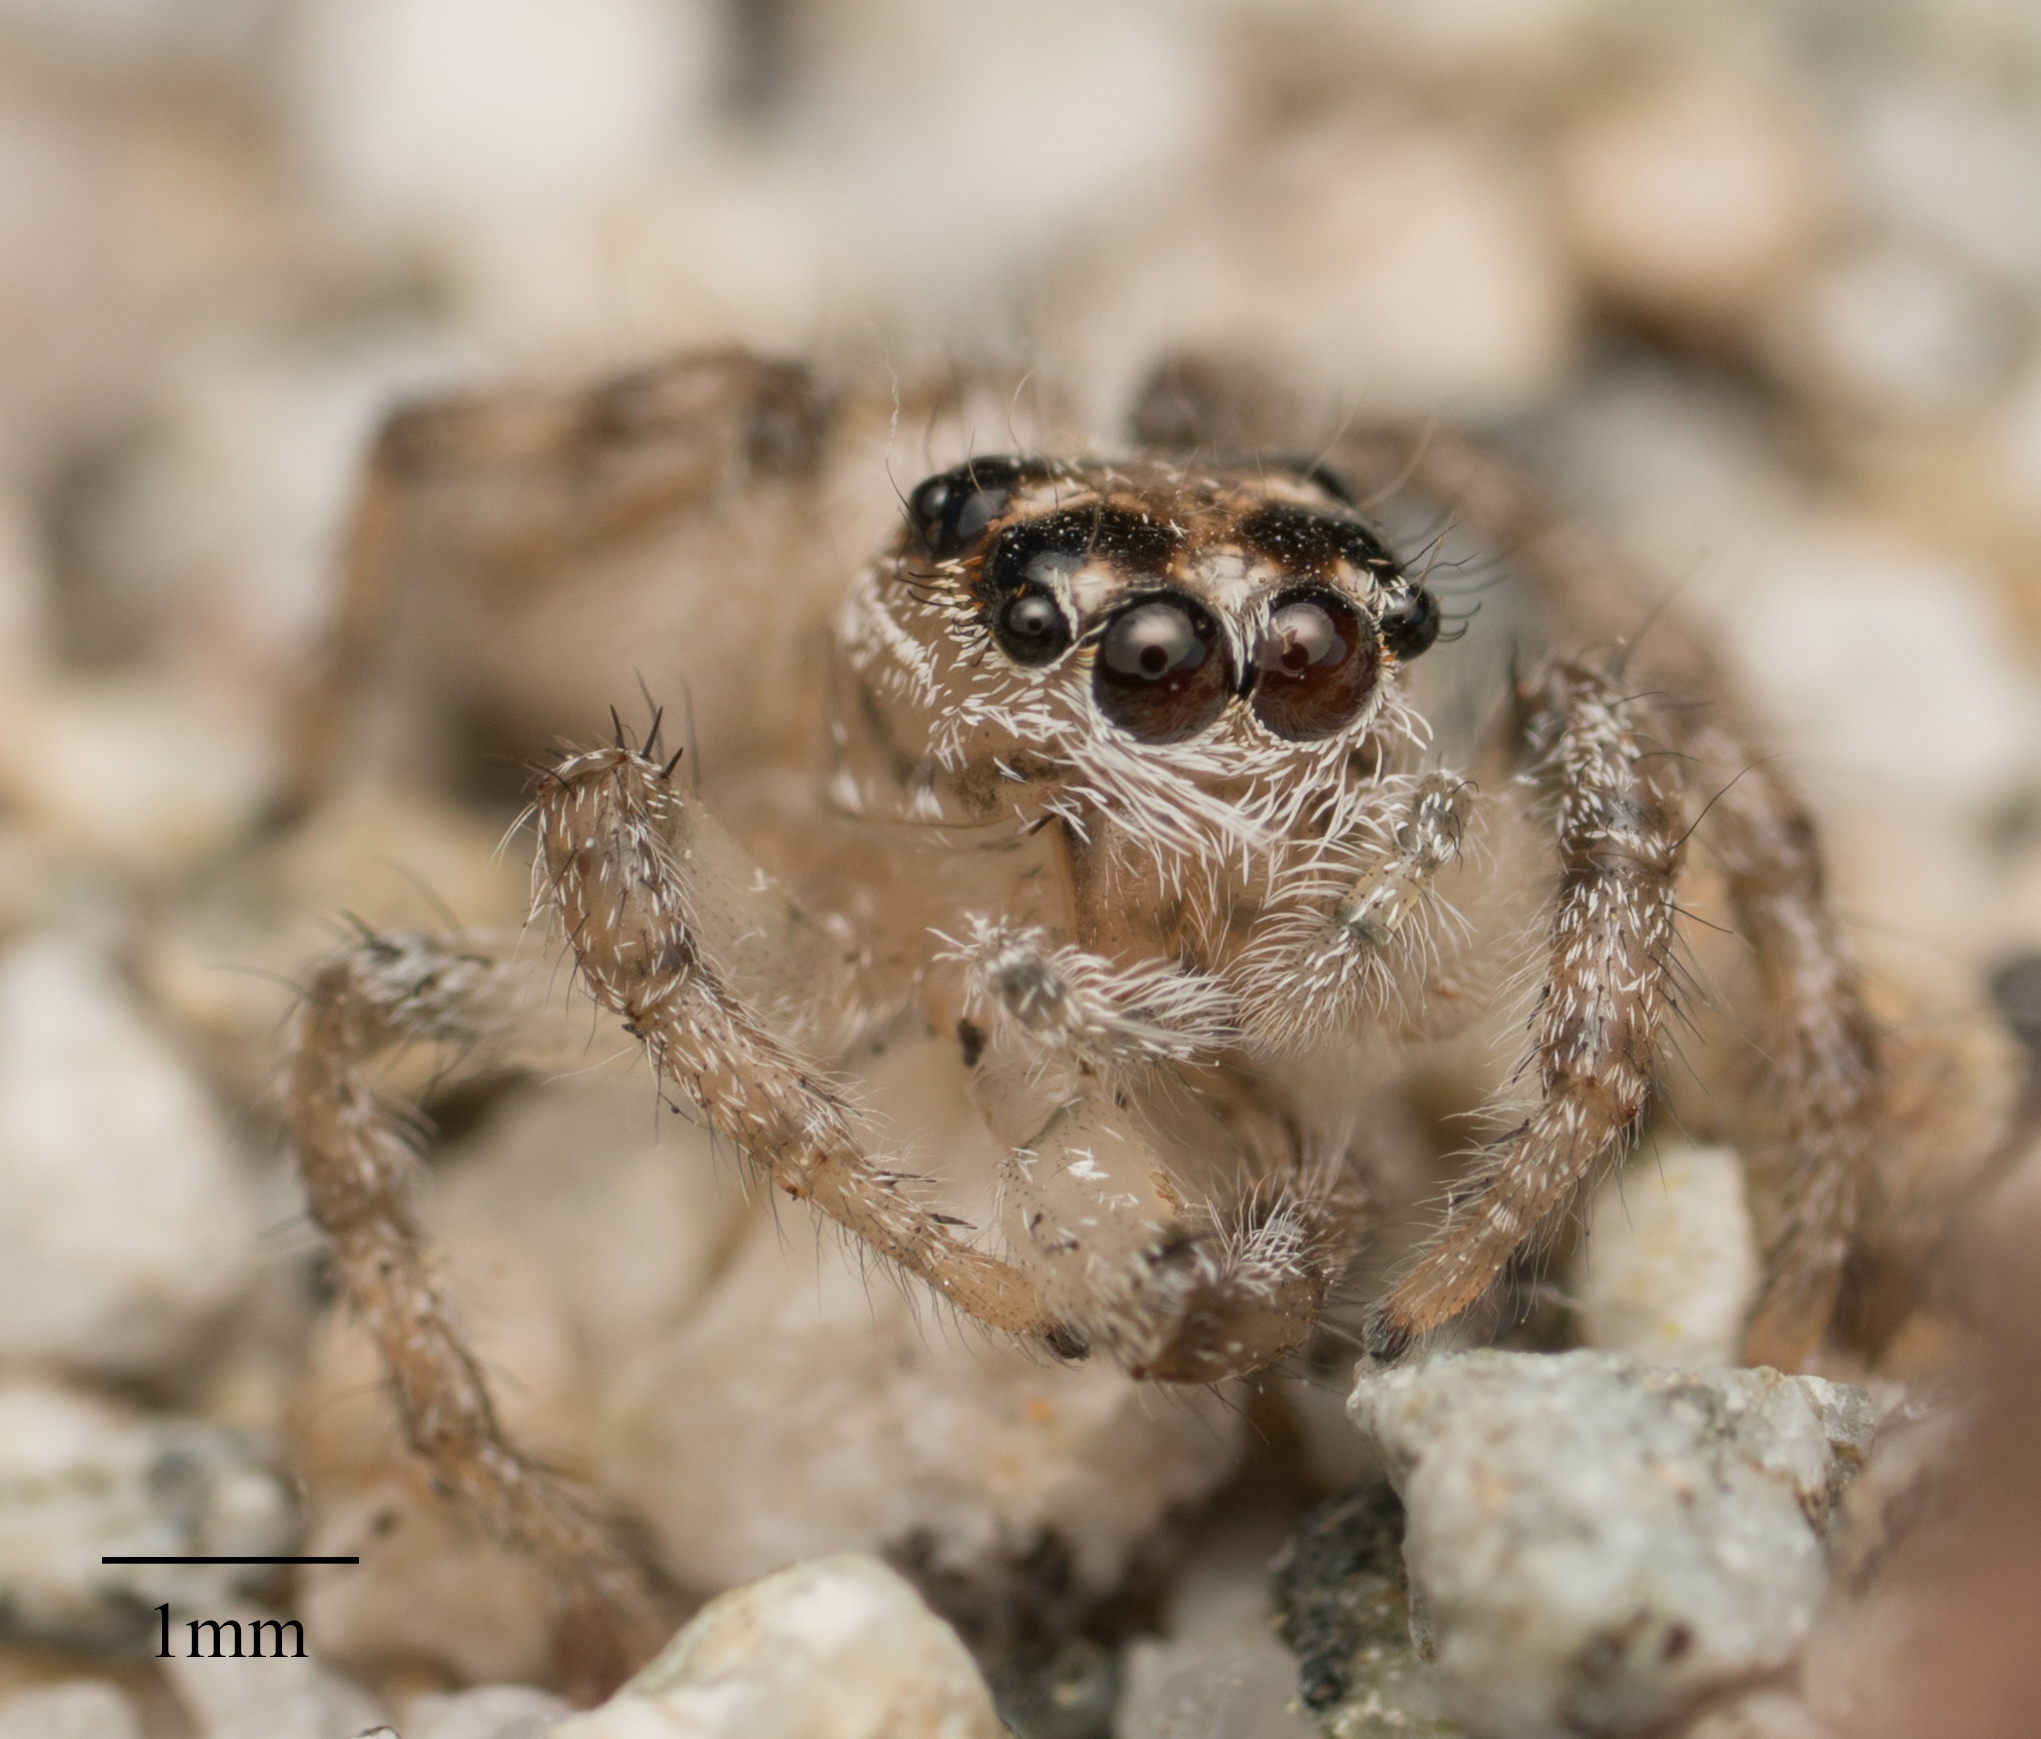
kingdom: Animalia
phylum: Arthropoda
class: Arachnida
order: Araneae
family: Salticidae
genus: Colonus
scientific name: Colonus hesperus
